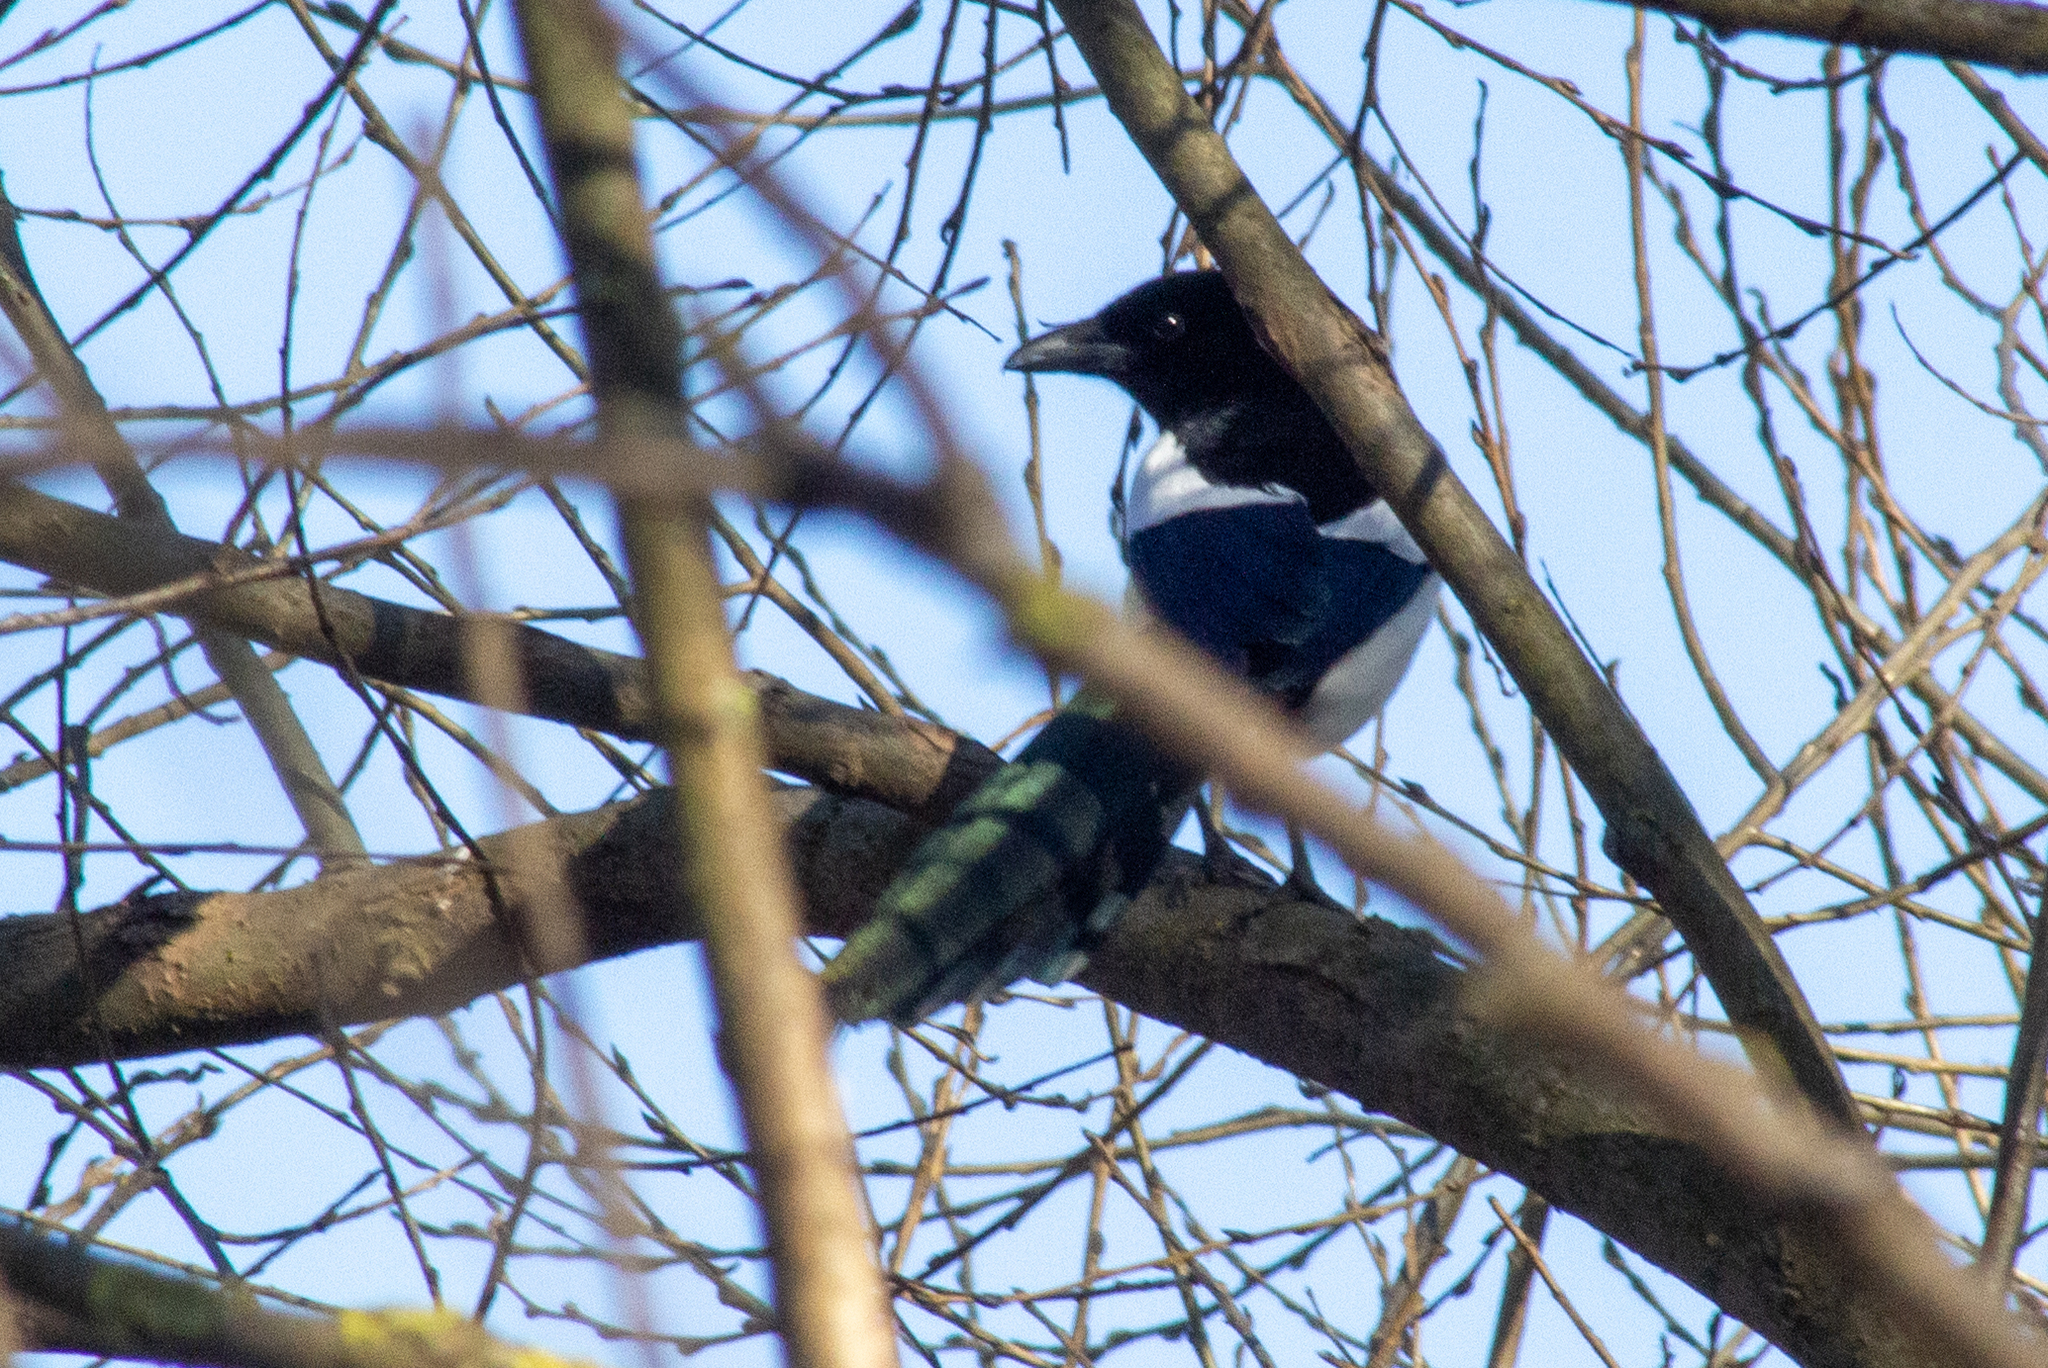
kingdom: Animalia
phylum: Chordata
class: Aves
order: Passeriformes
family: Corvidae
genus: Pica
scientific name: Pica pica
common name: Eurasian magpie
